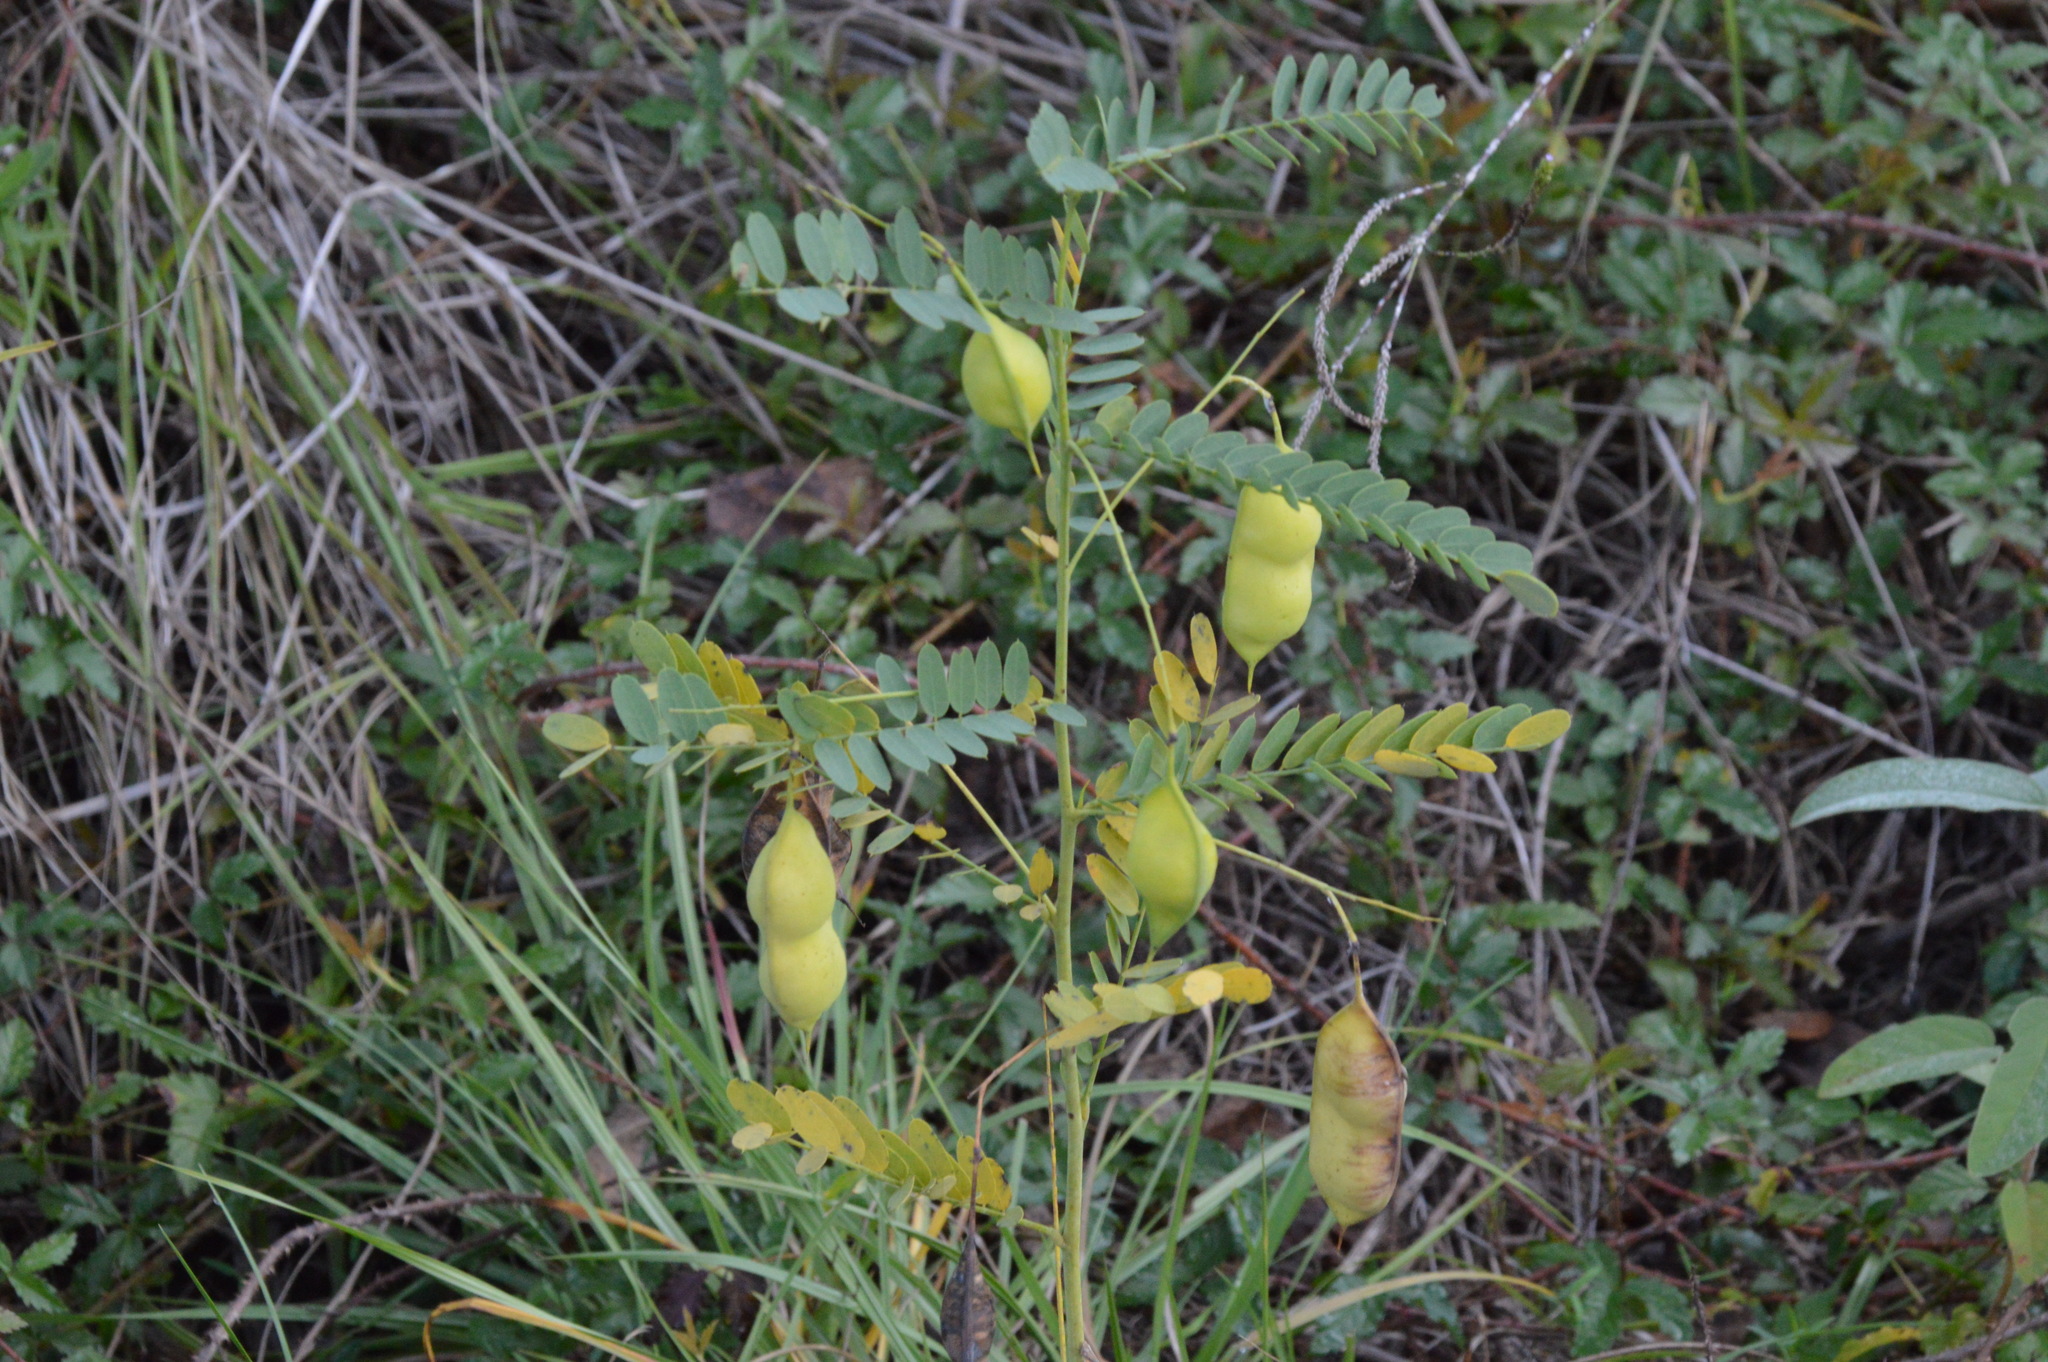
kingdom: Plantae
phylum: Tracheophyta
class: Magnoliopsida
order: Fabales
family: Fabaceae
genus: Sesbania
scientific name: Sesbania vesicaria
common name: Bagpod
